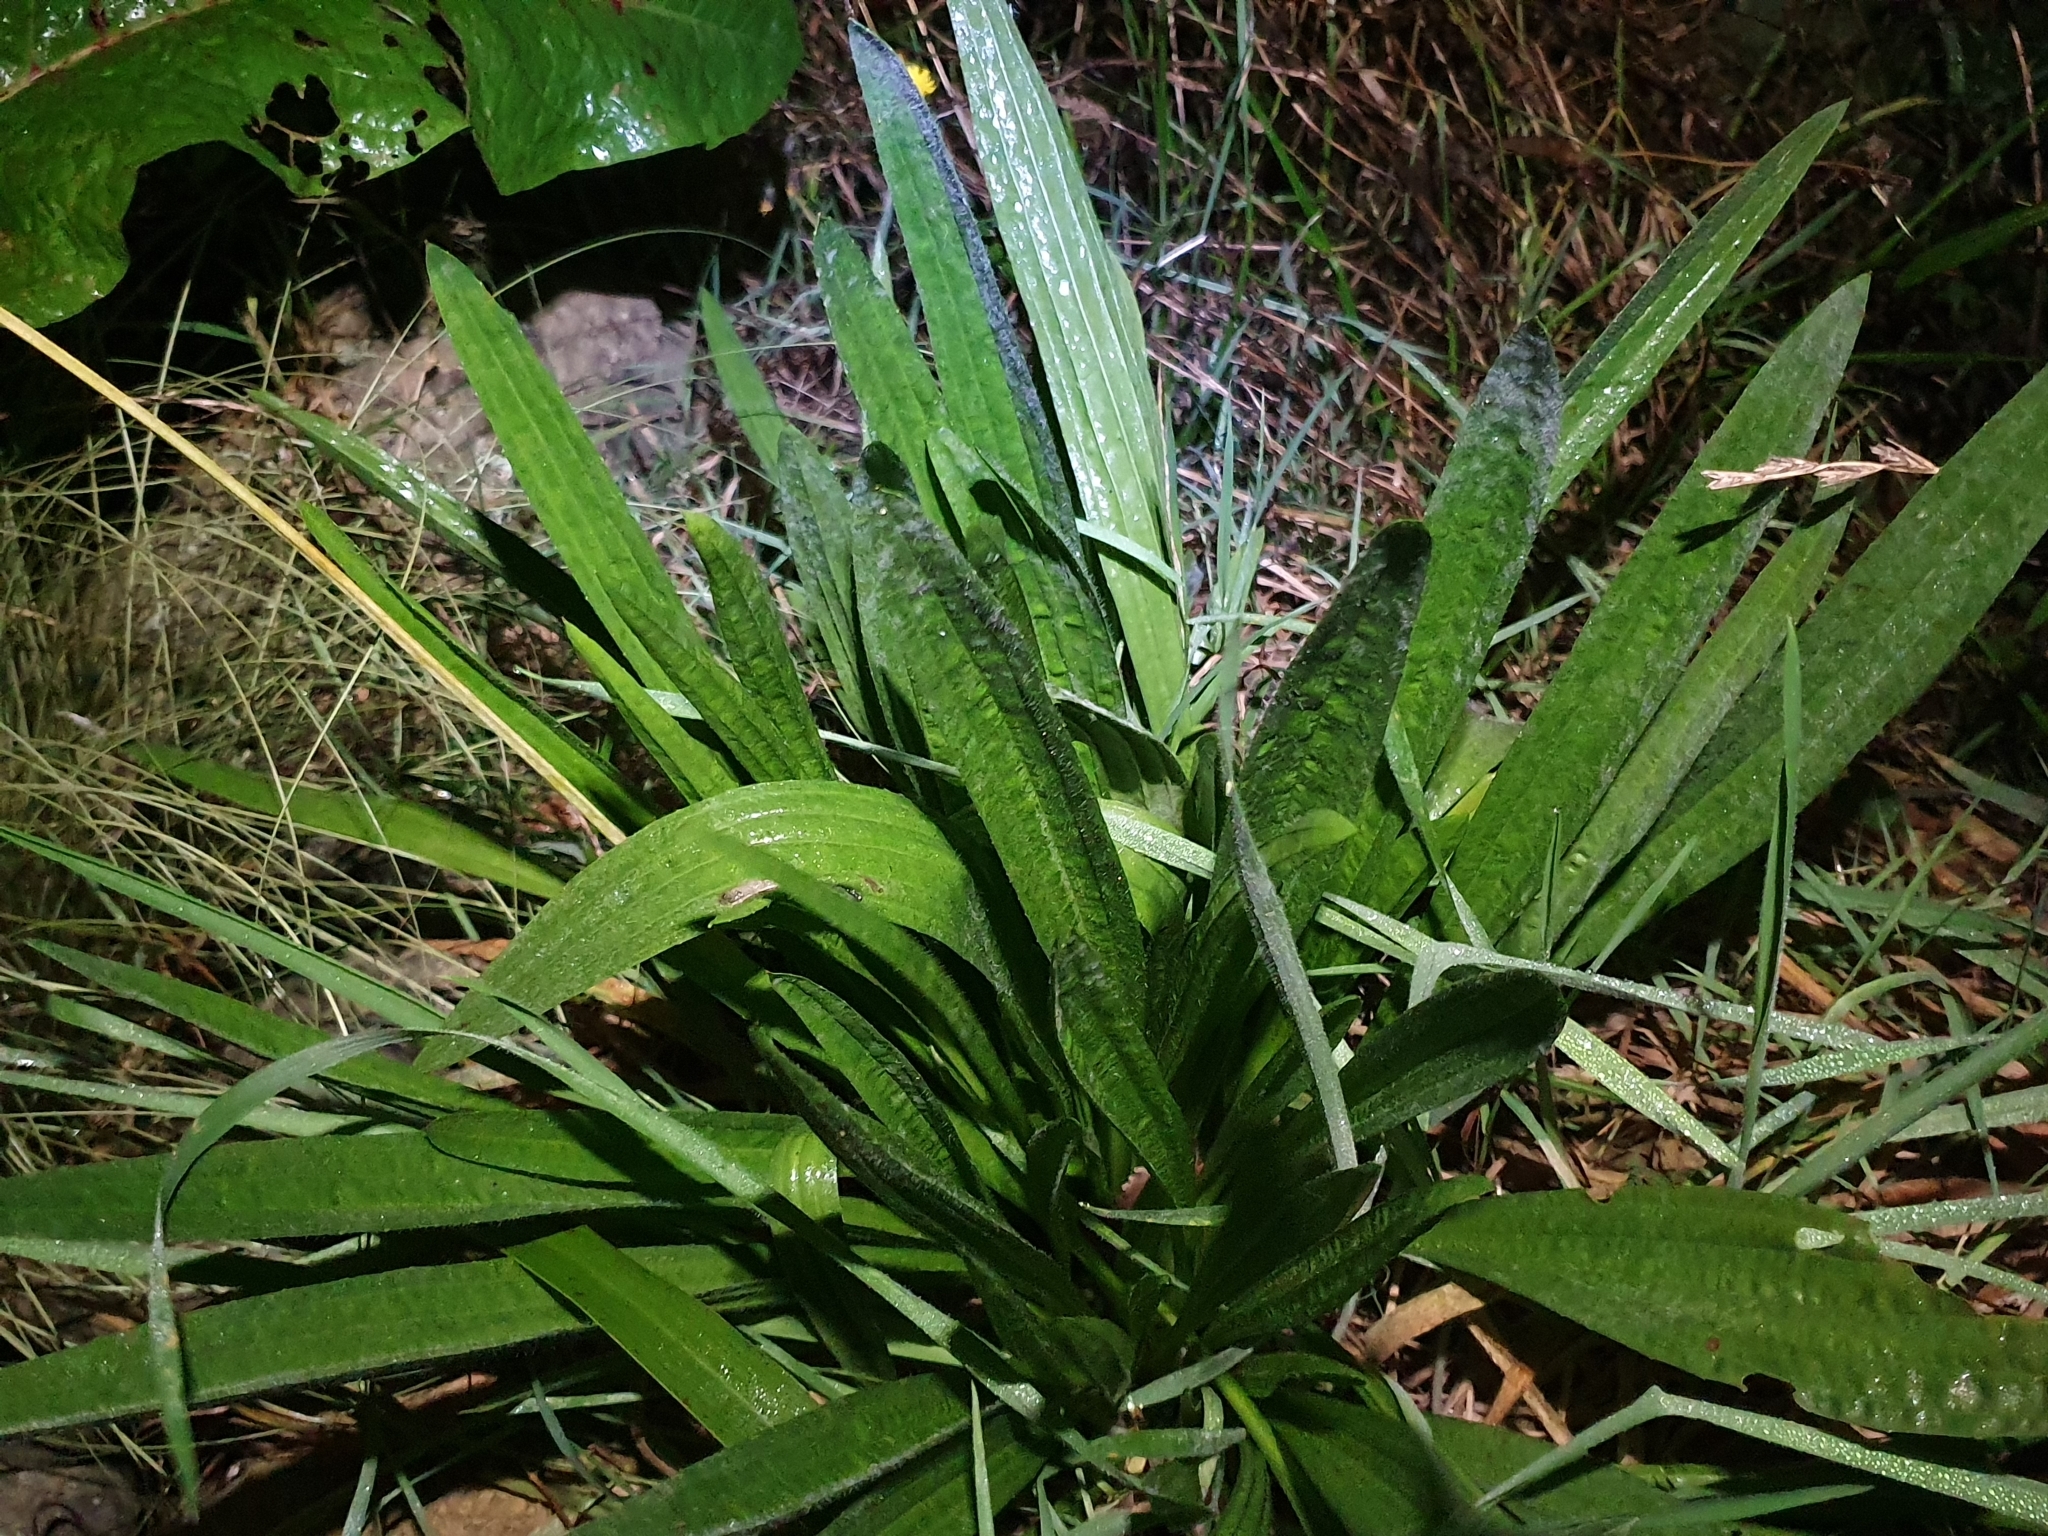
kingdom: Plantae
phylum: Tracheophyta
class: Magnoliopsida
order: Lamiales
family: Plantaginaceae
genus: Plantago
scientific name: Plantago lanceolata
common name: Ribwort plantain
